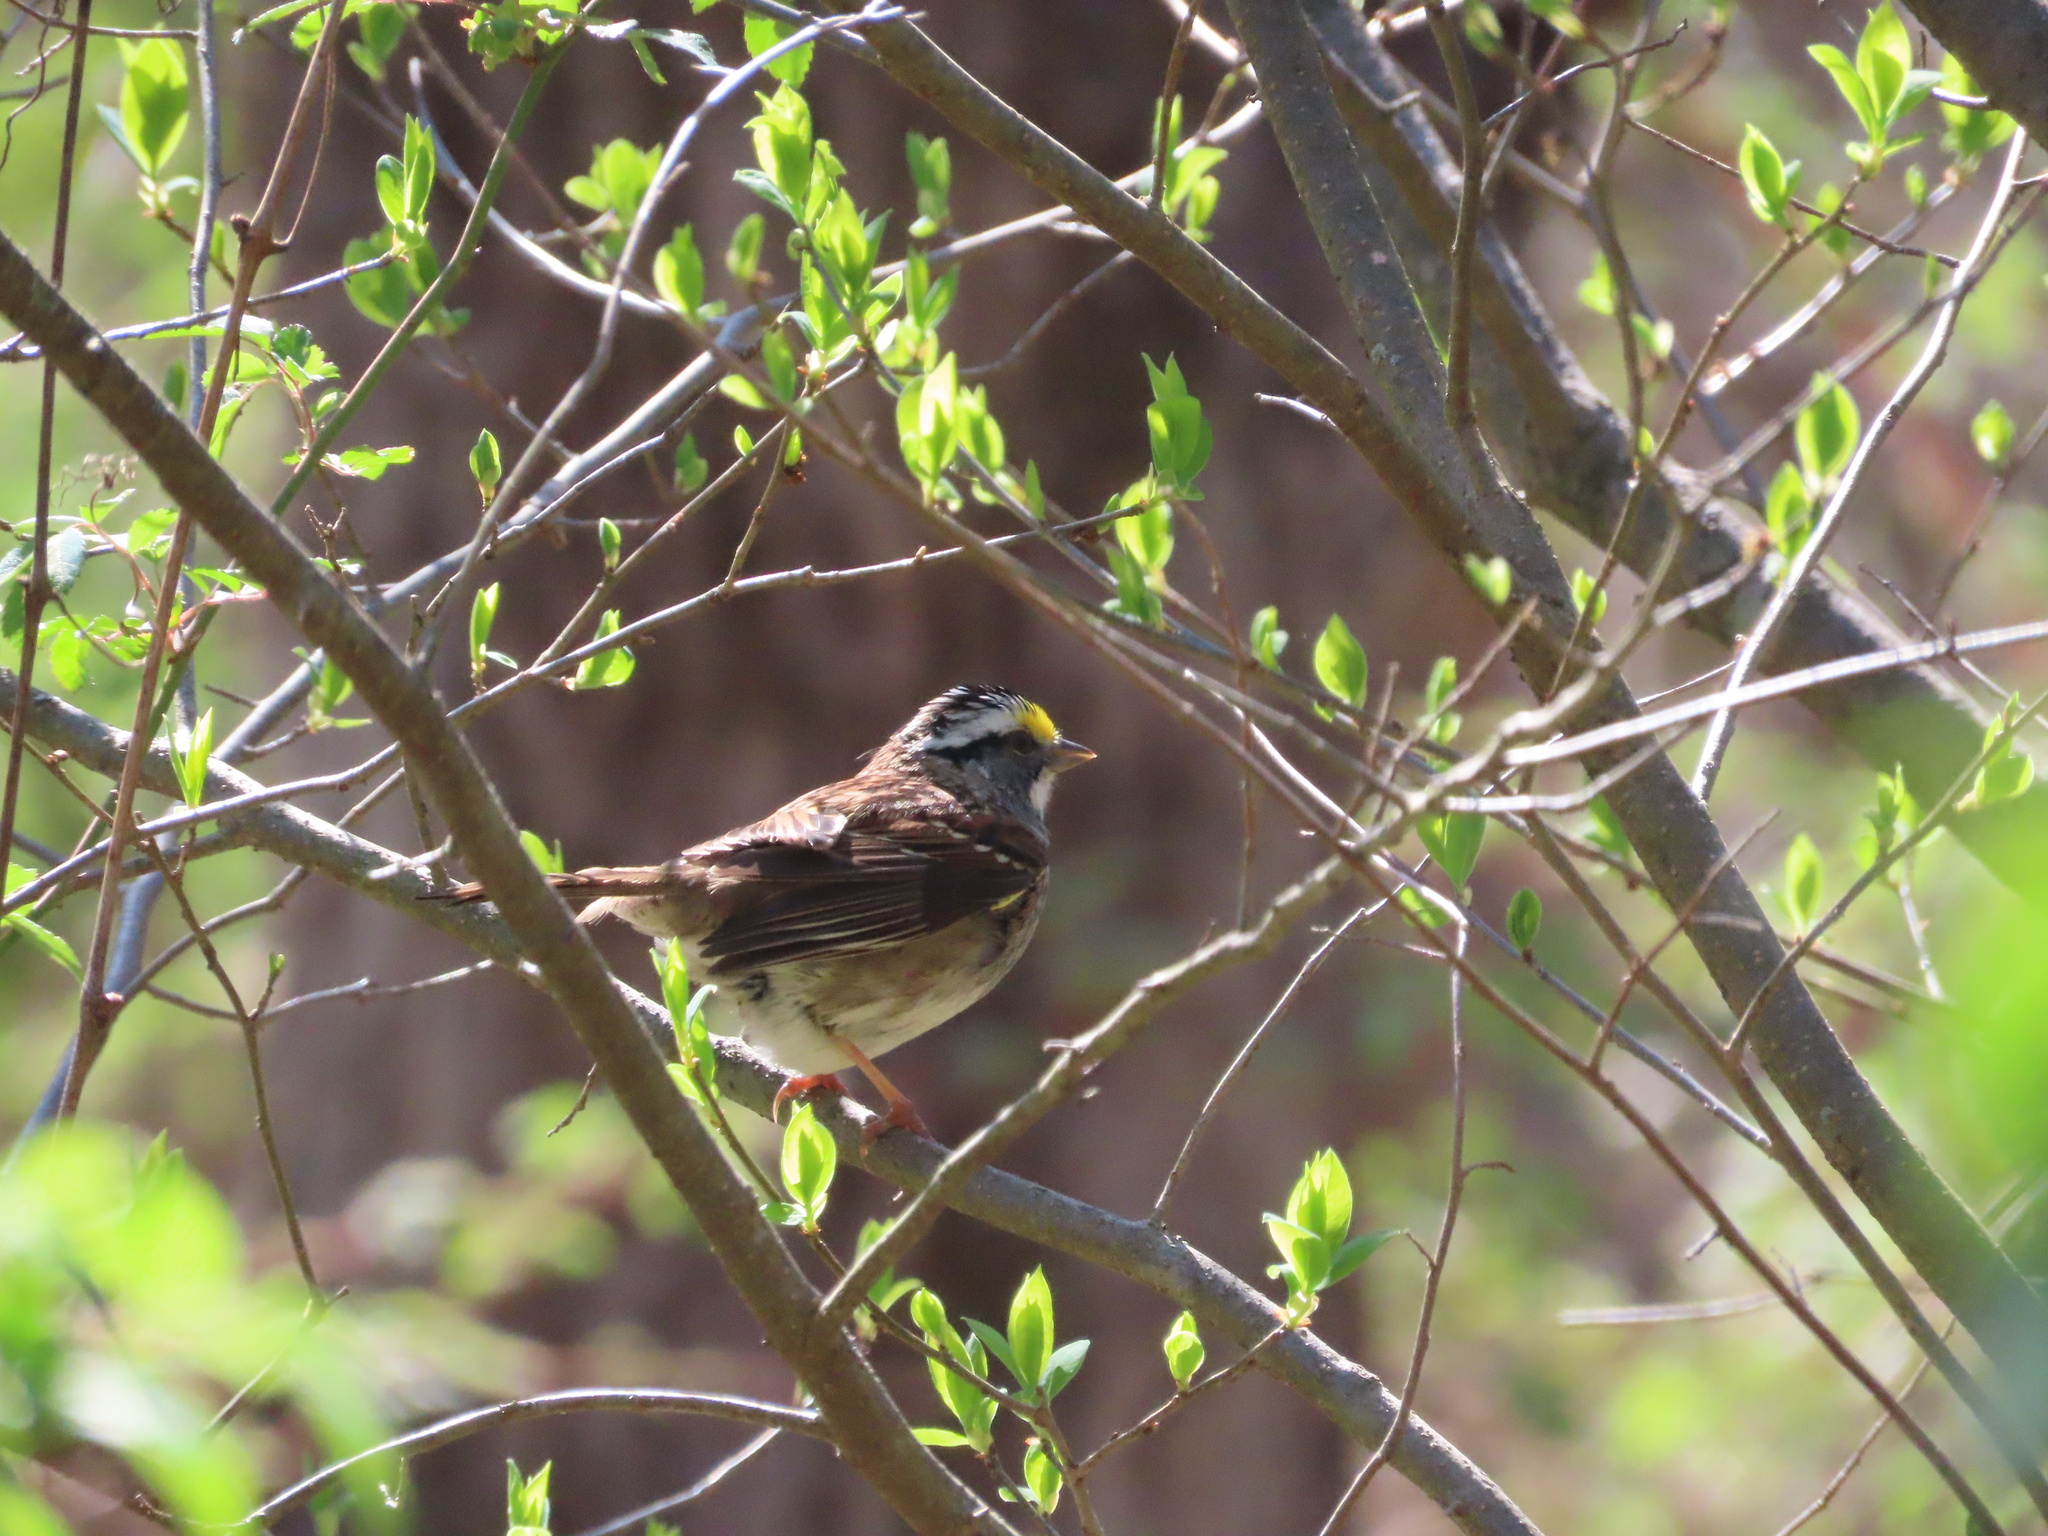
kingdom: Animalia
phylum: Chordata
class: Aves
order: Passeriformes
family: Passerellidae
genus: Zonotrichia
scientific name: Zonotrichia albicollis
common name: White-throated sparrow
